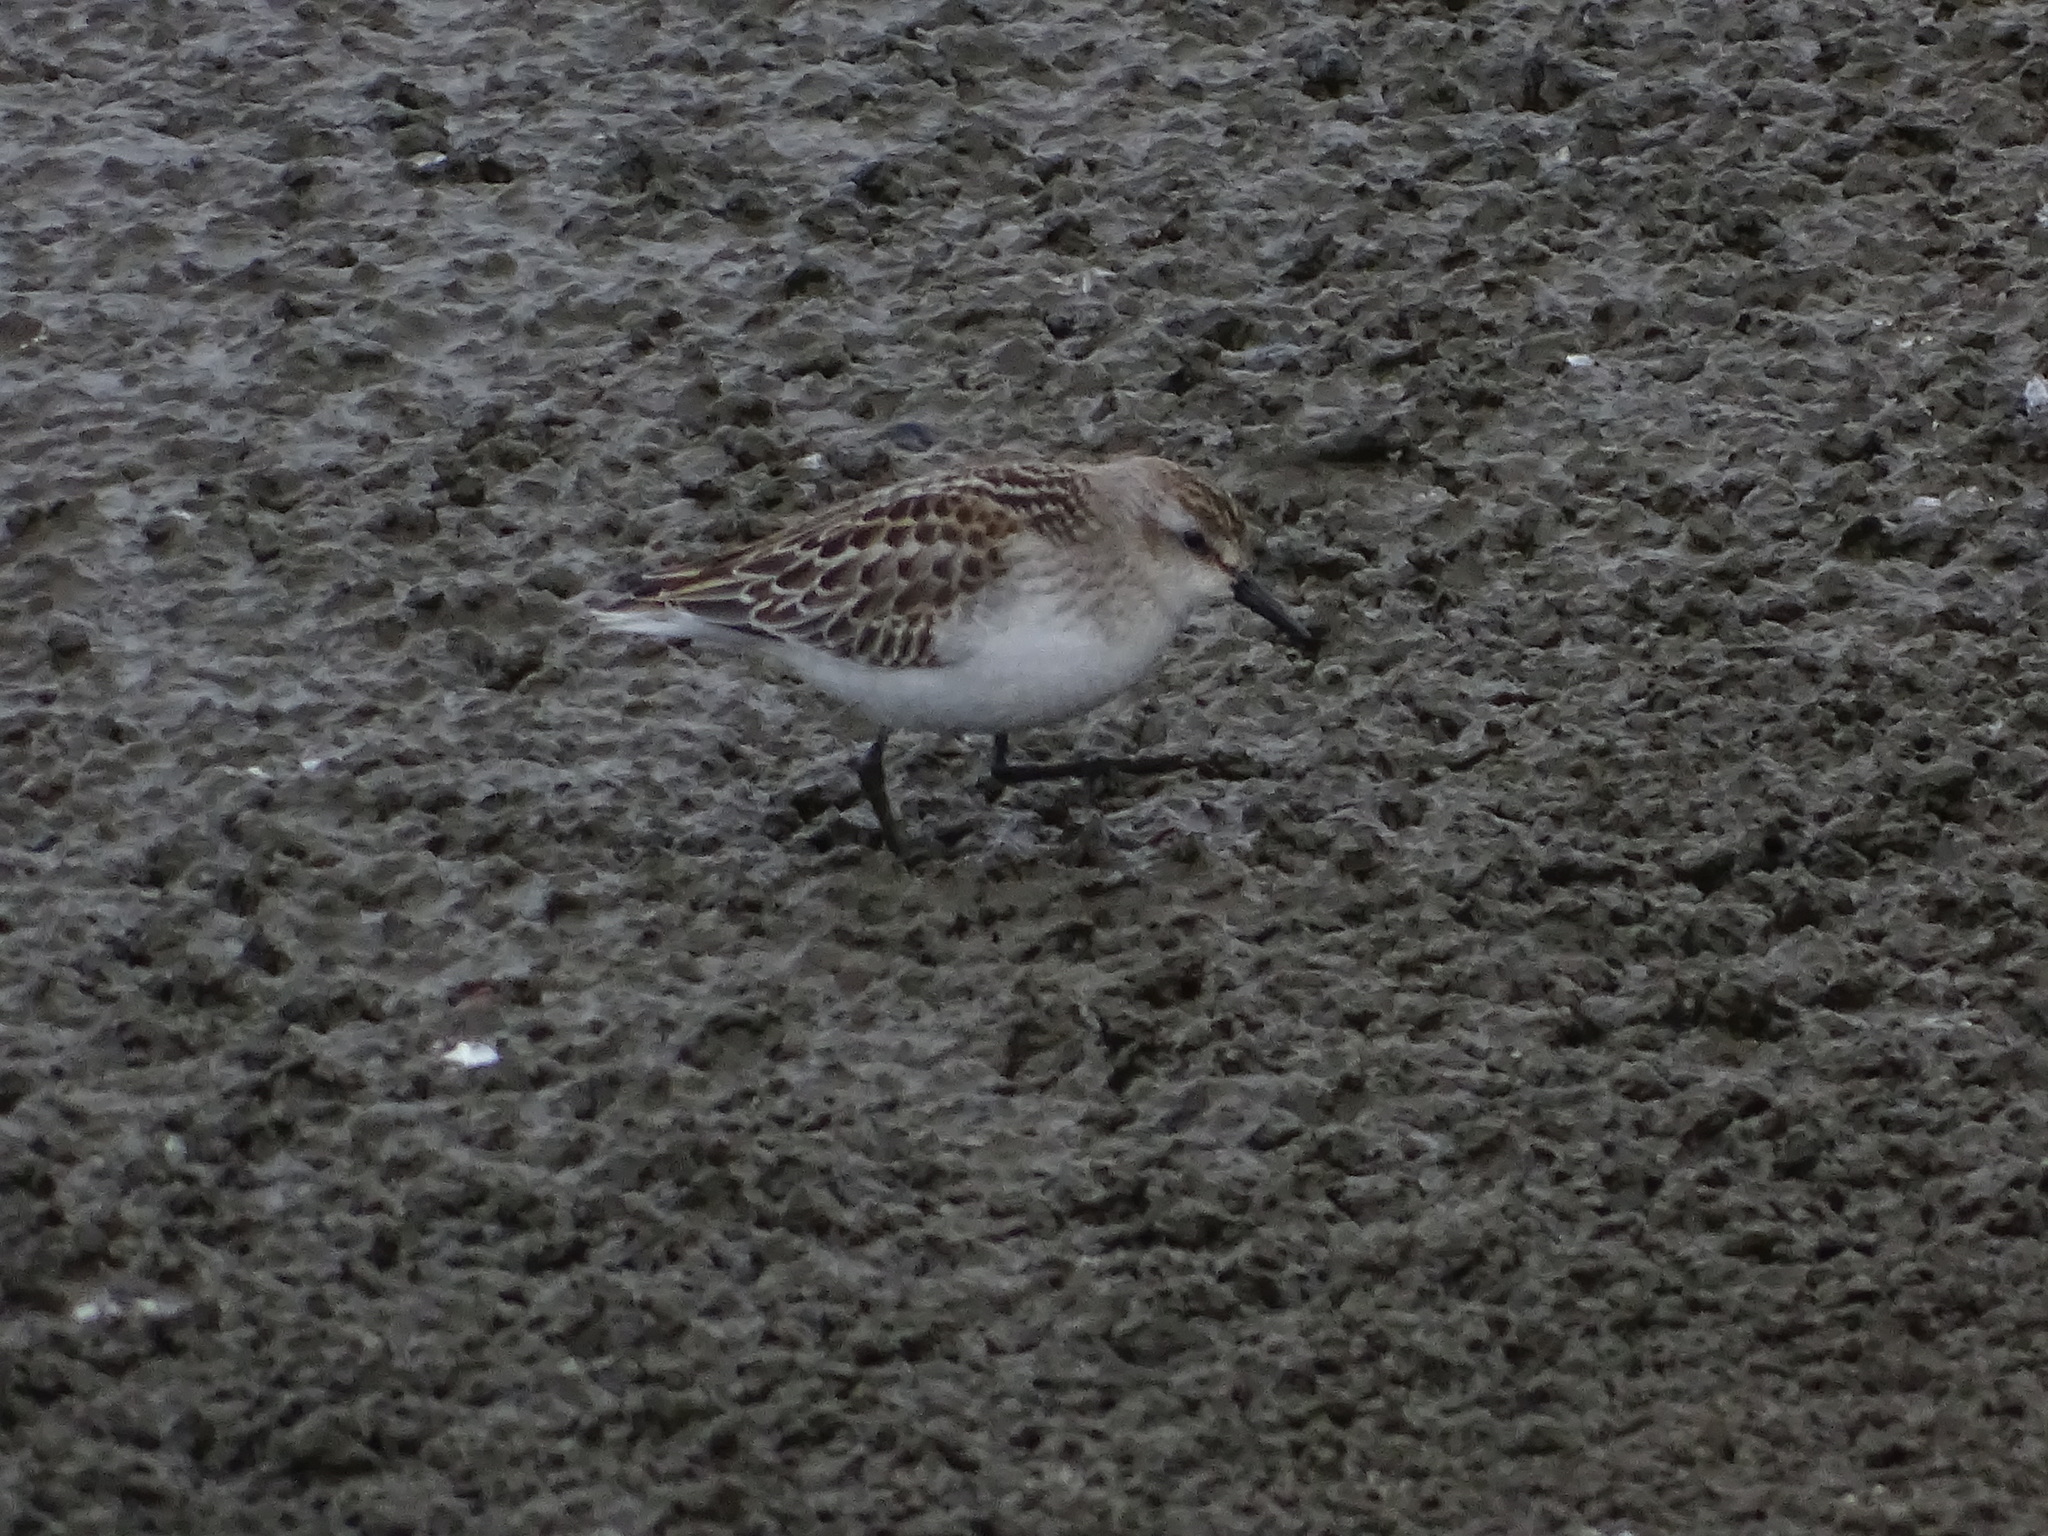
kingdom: Animalia
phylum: Chordata
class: Aves
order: Charadriiformes
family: Scolopacidae
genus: Calidris
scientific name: Calidris pusilla
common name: Semipalmated sandpiper
